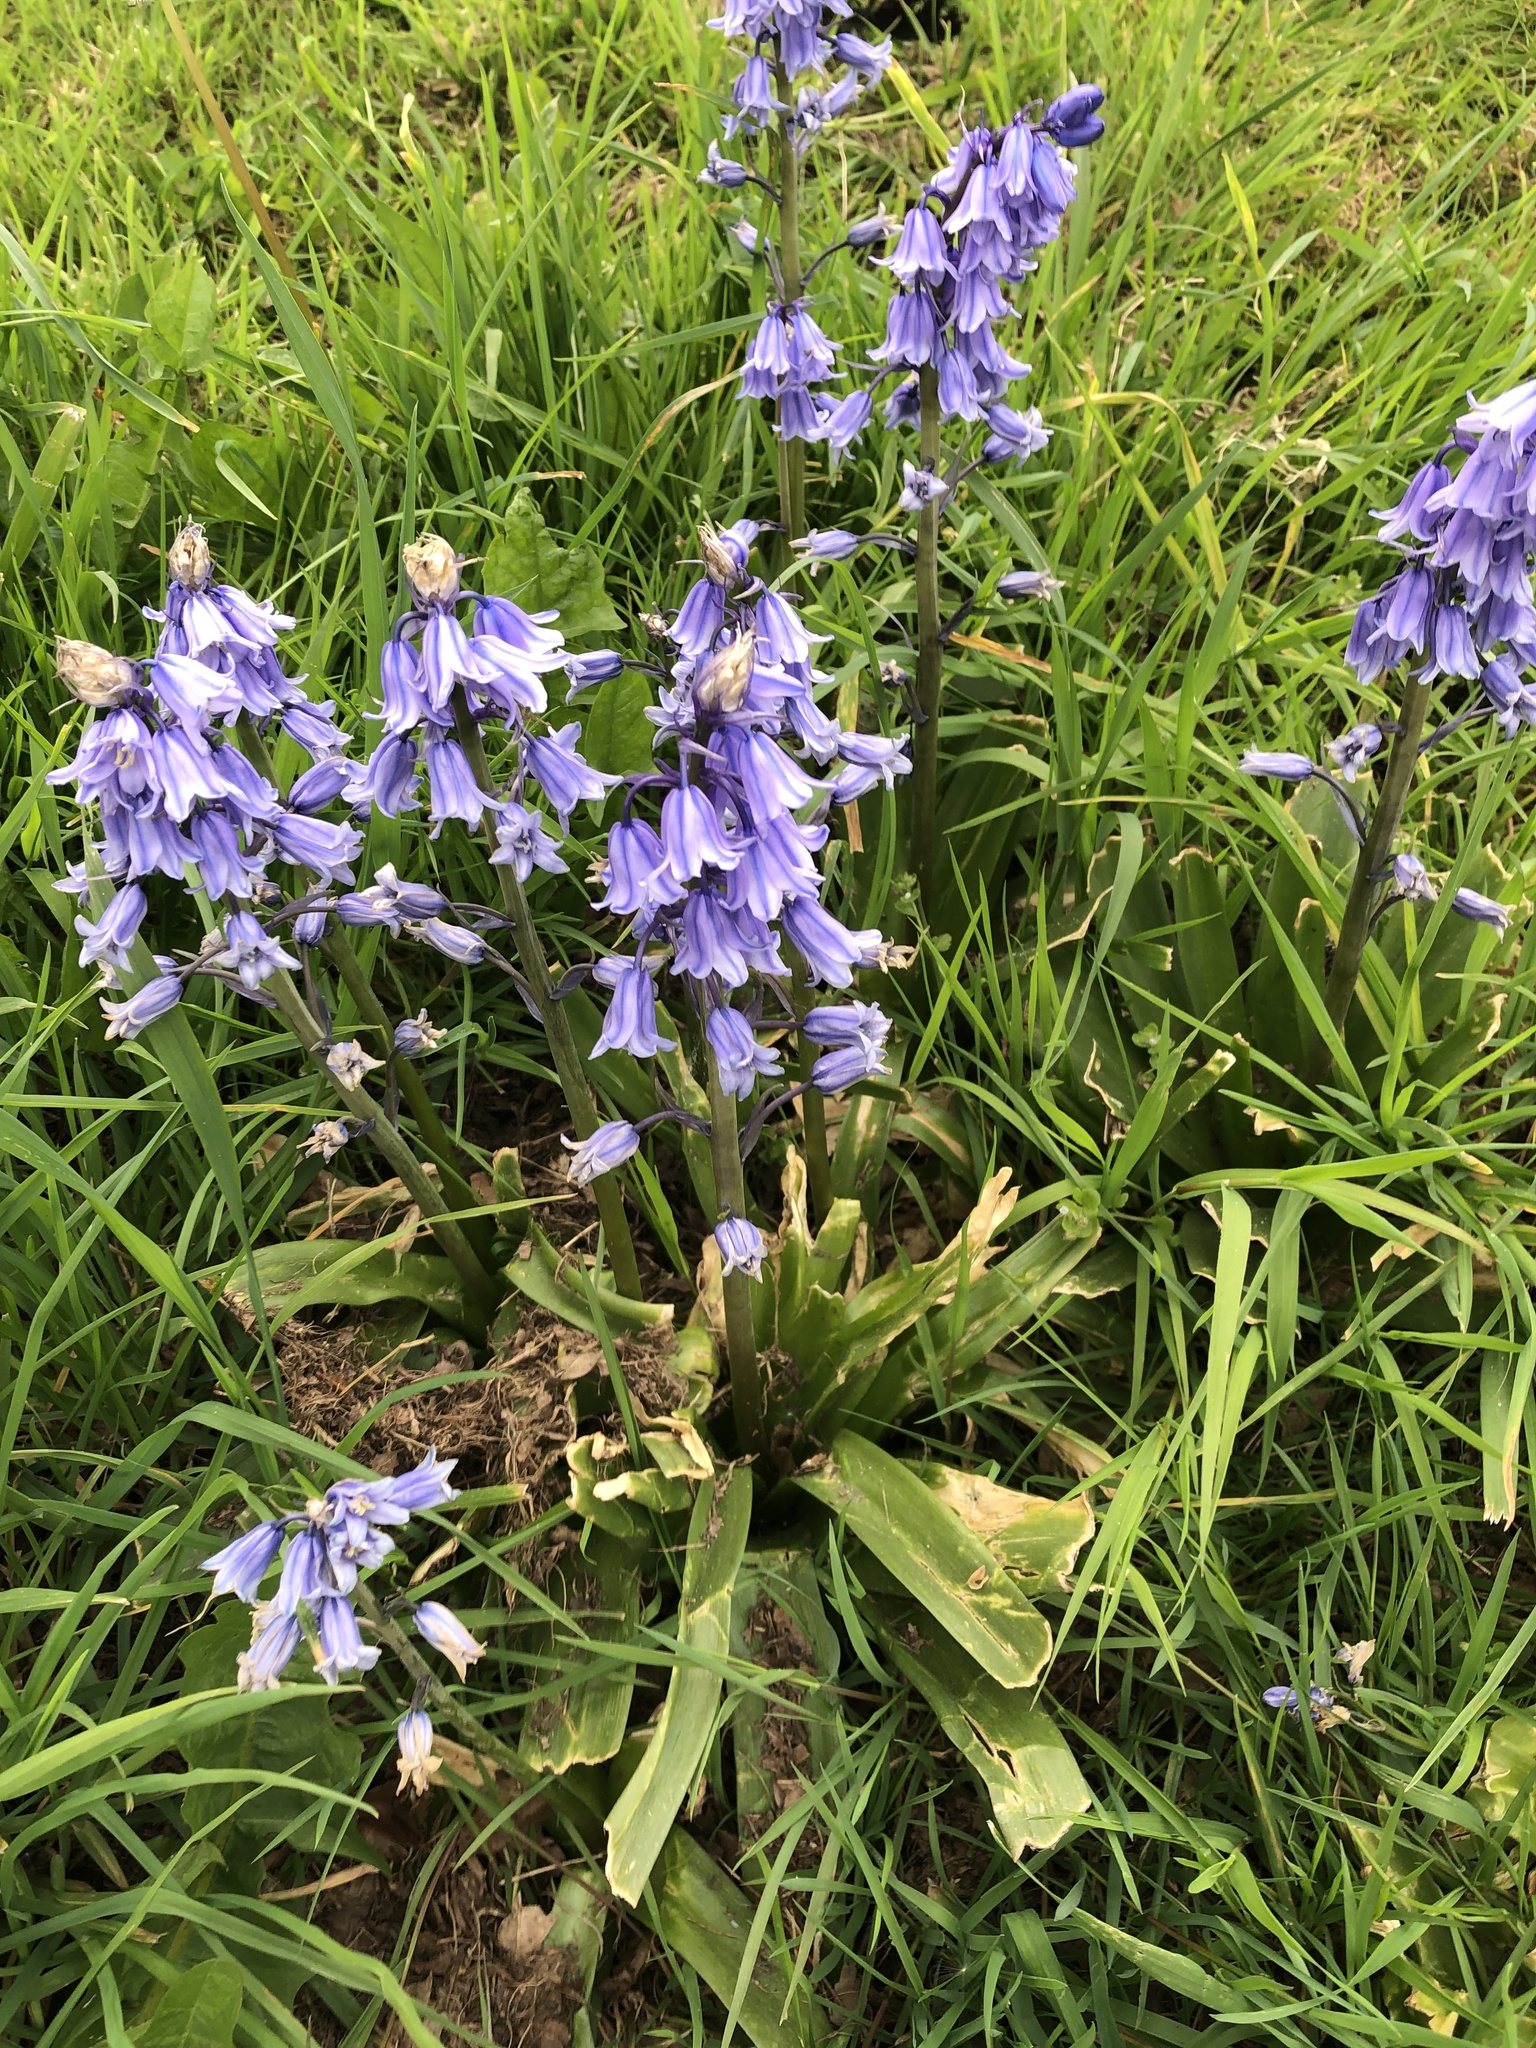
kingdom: Plantae
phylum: Tracheophyta
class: Liliopsida
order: Asparagales
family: Asparagaceae
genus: Hyacinthoides
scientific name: Hyacinthoides massartiana
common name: Hyacinthoides
